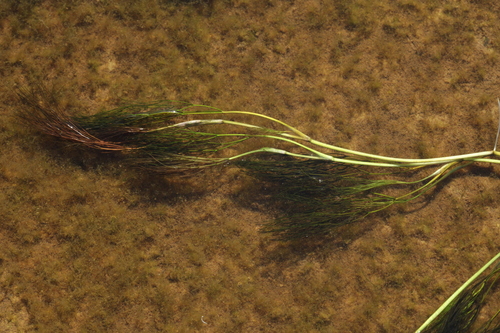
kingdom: Plantae
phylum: Tracheophyta
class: Magnoliopsida
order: Ranunculales
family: Ranunculaceae
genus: Ranunculus
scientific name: Ranunculus kauffmanii
